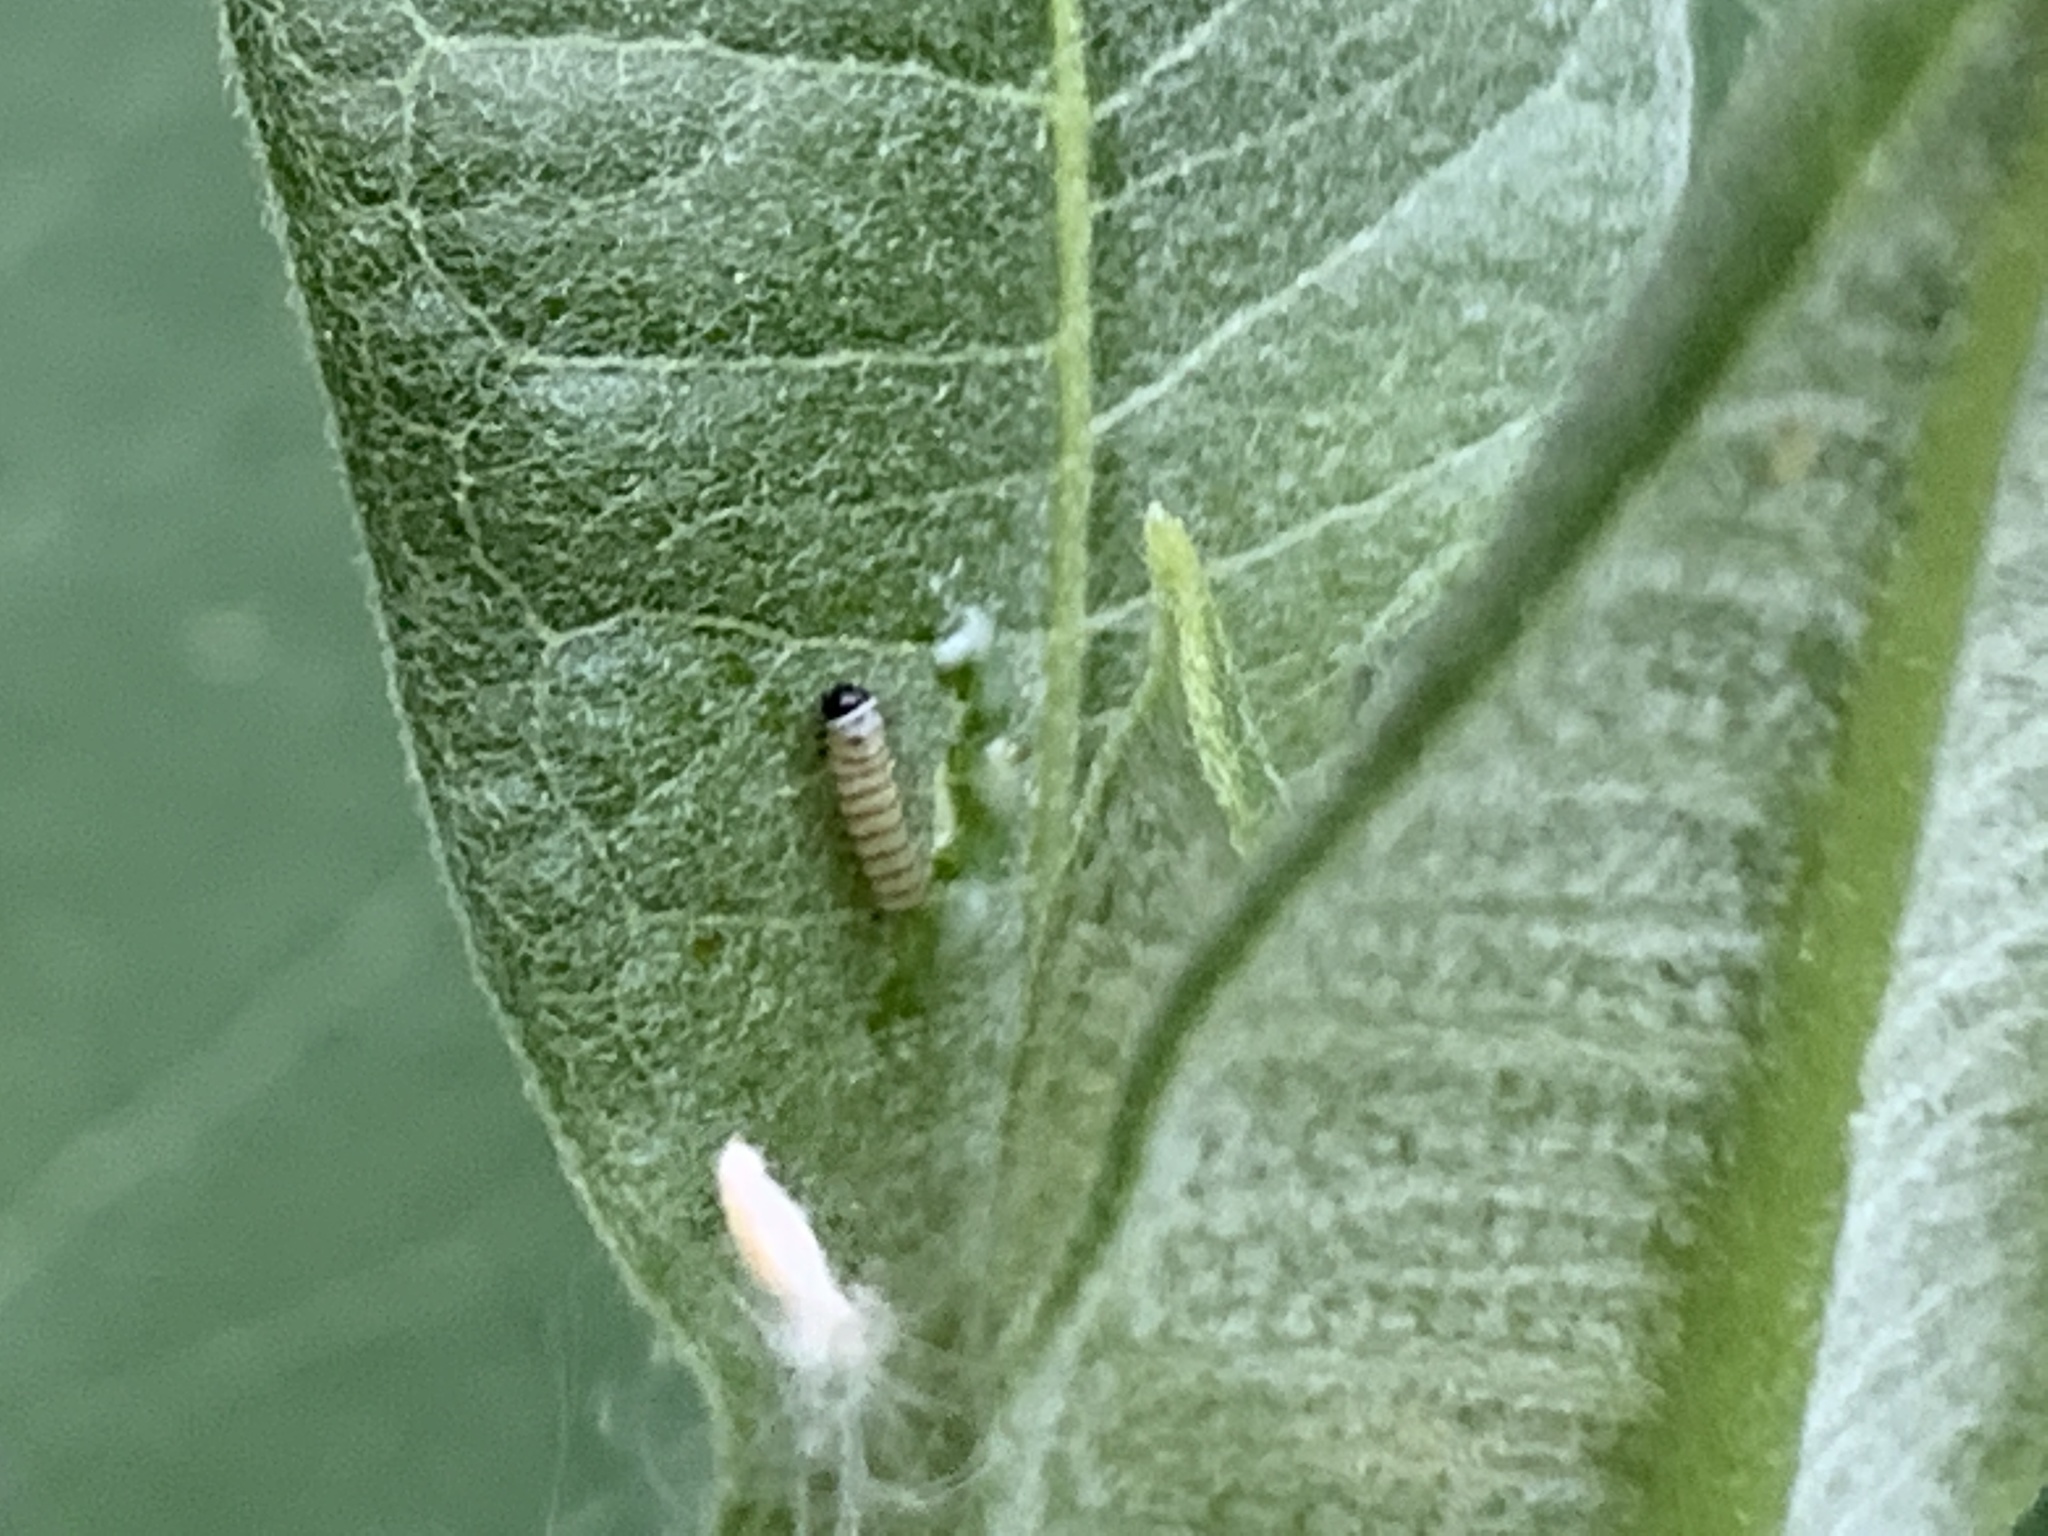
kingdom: Animalia
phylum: Arthropoda
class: Insecta
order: Lepidoptera
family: Nymphalidae
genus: Danaus
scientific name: Danaus plexippus
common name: Monarch
